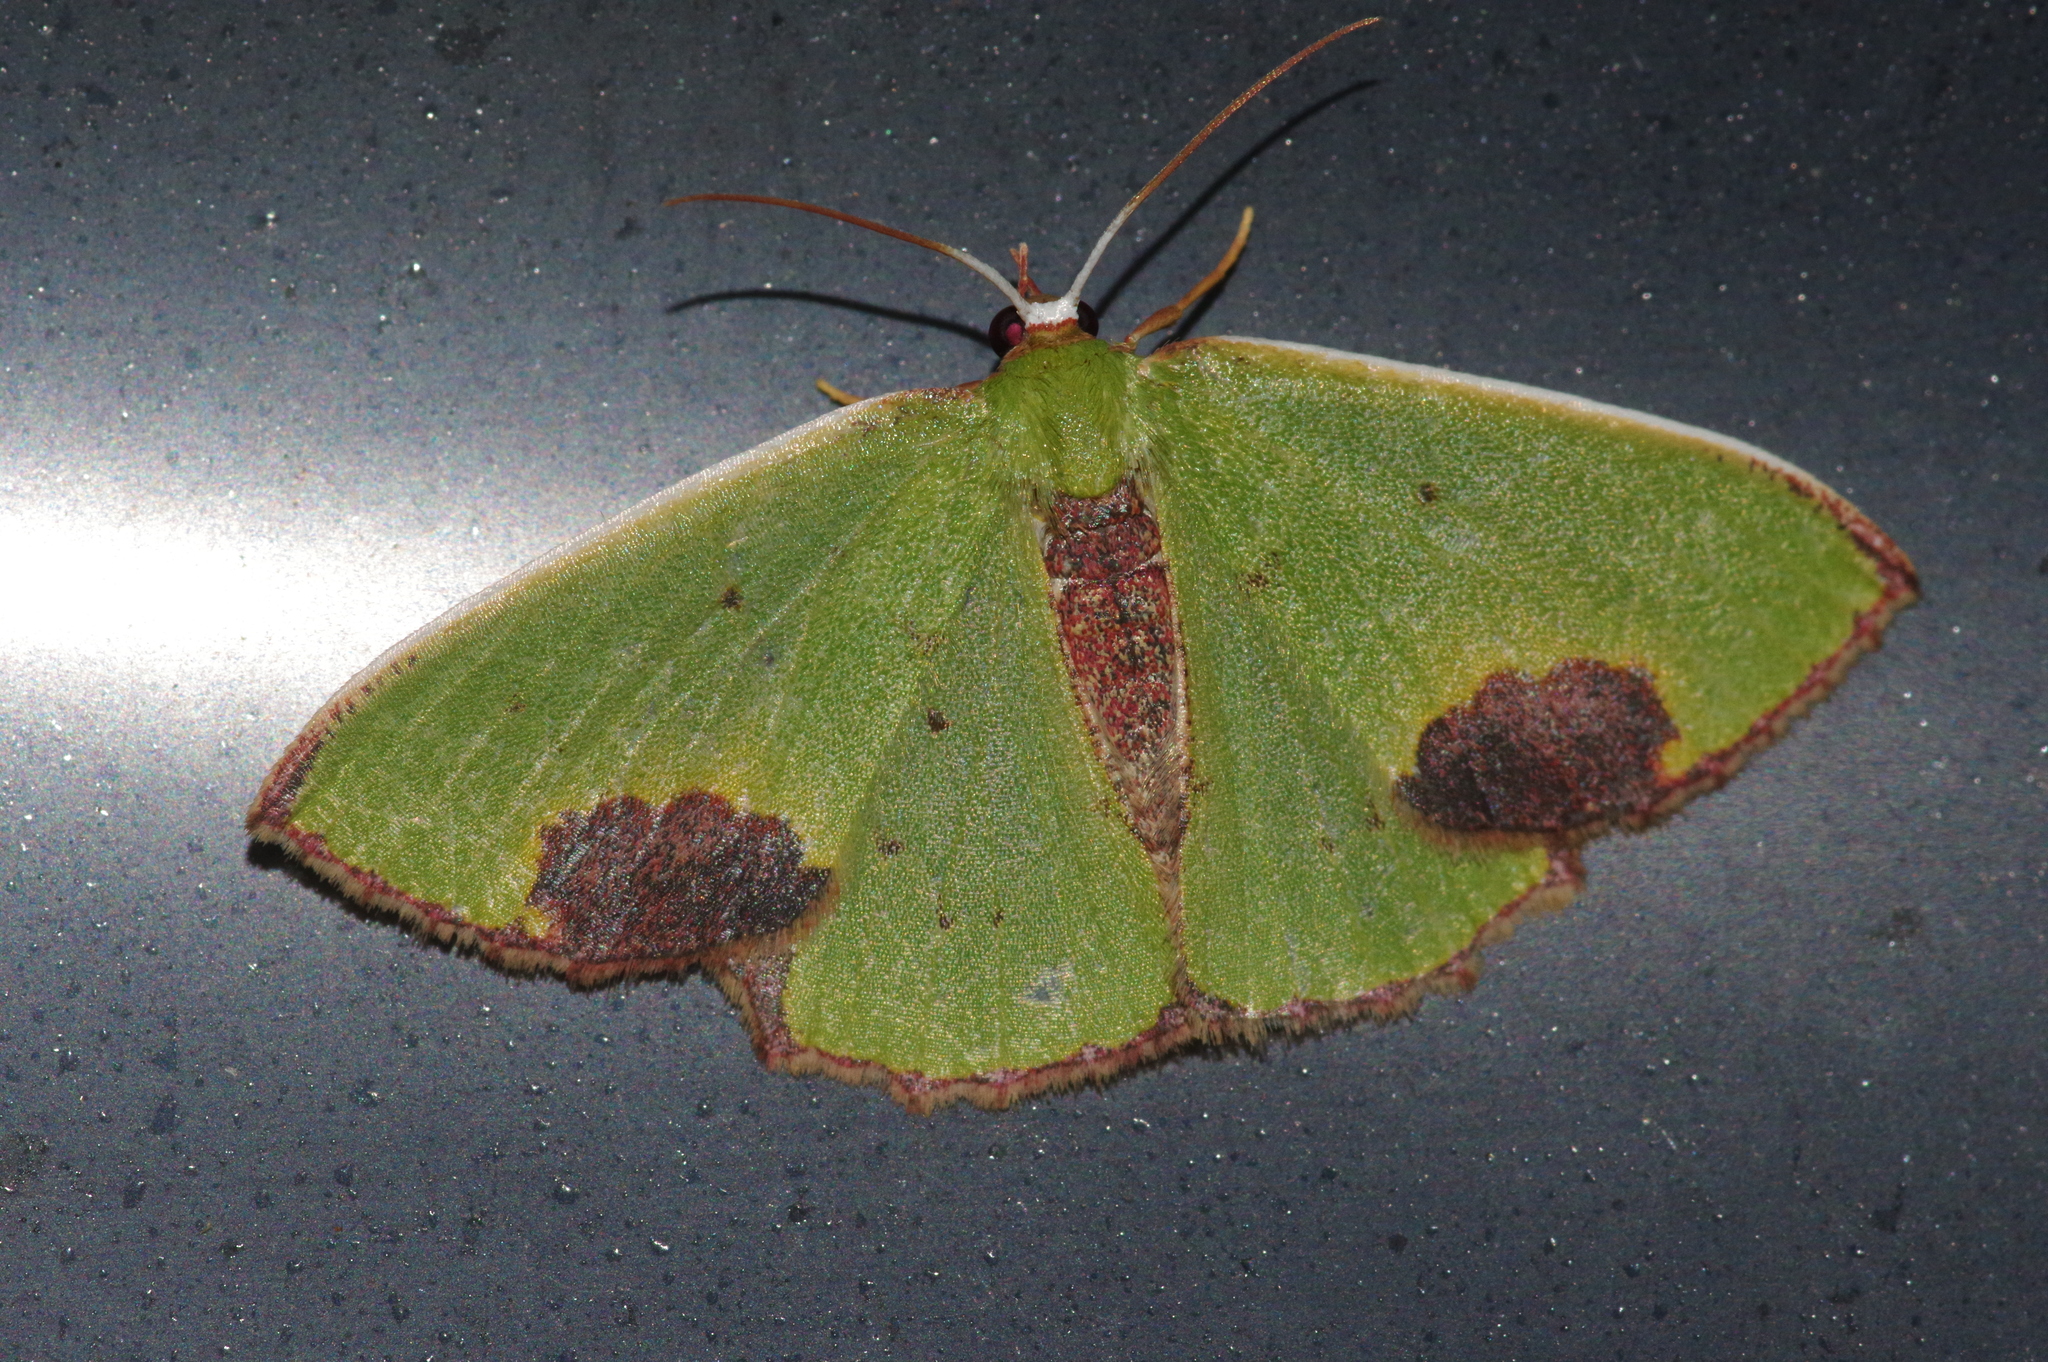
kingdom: Animalia
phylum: Arthropoda
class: Insecta
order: Lepidoptera
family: Geometridae
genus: Spaniocentra
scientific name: Spaniocentra hollowayi
